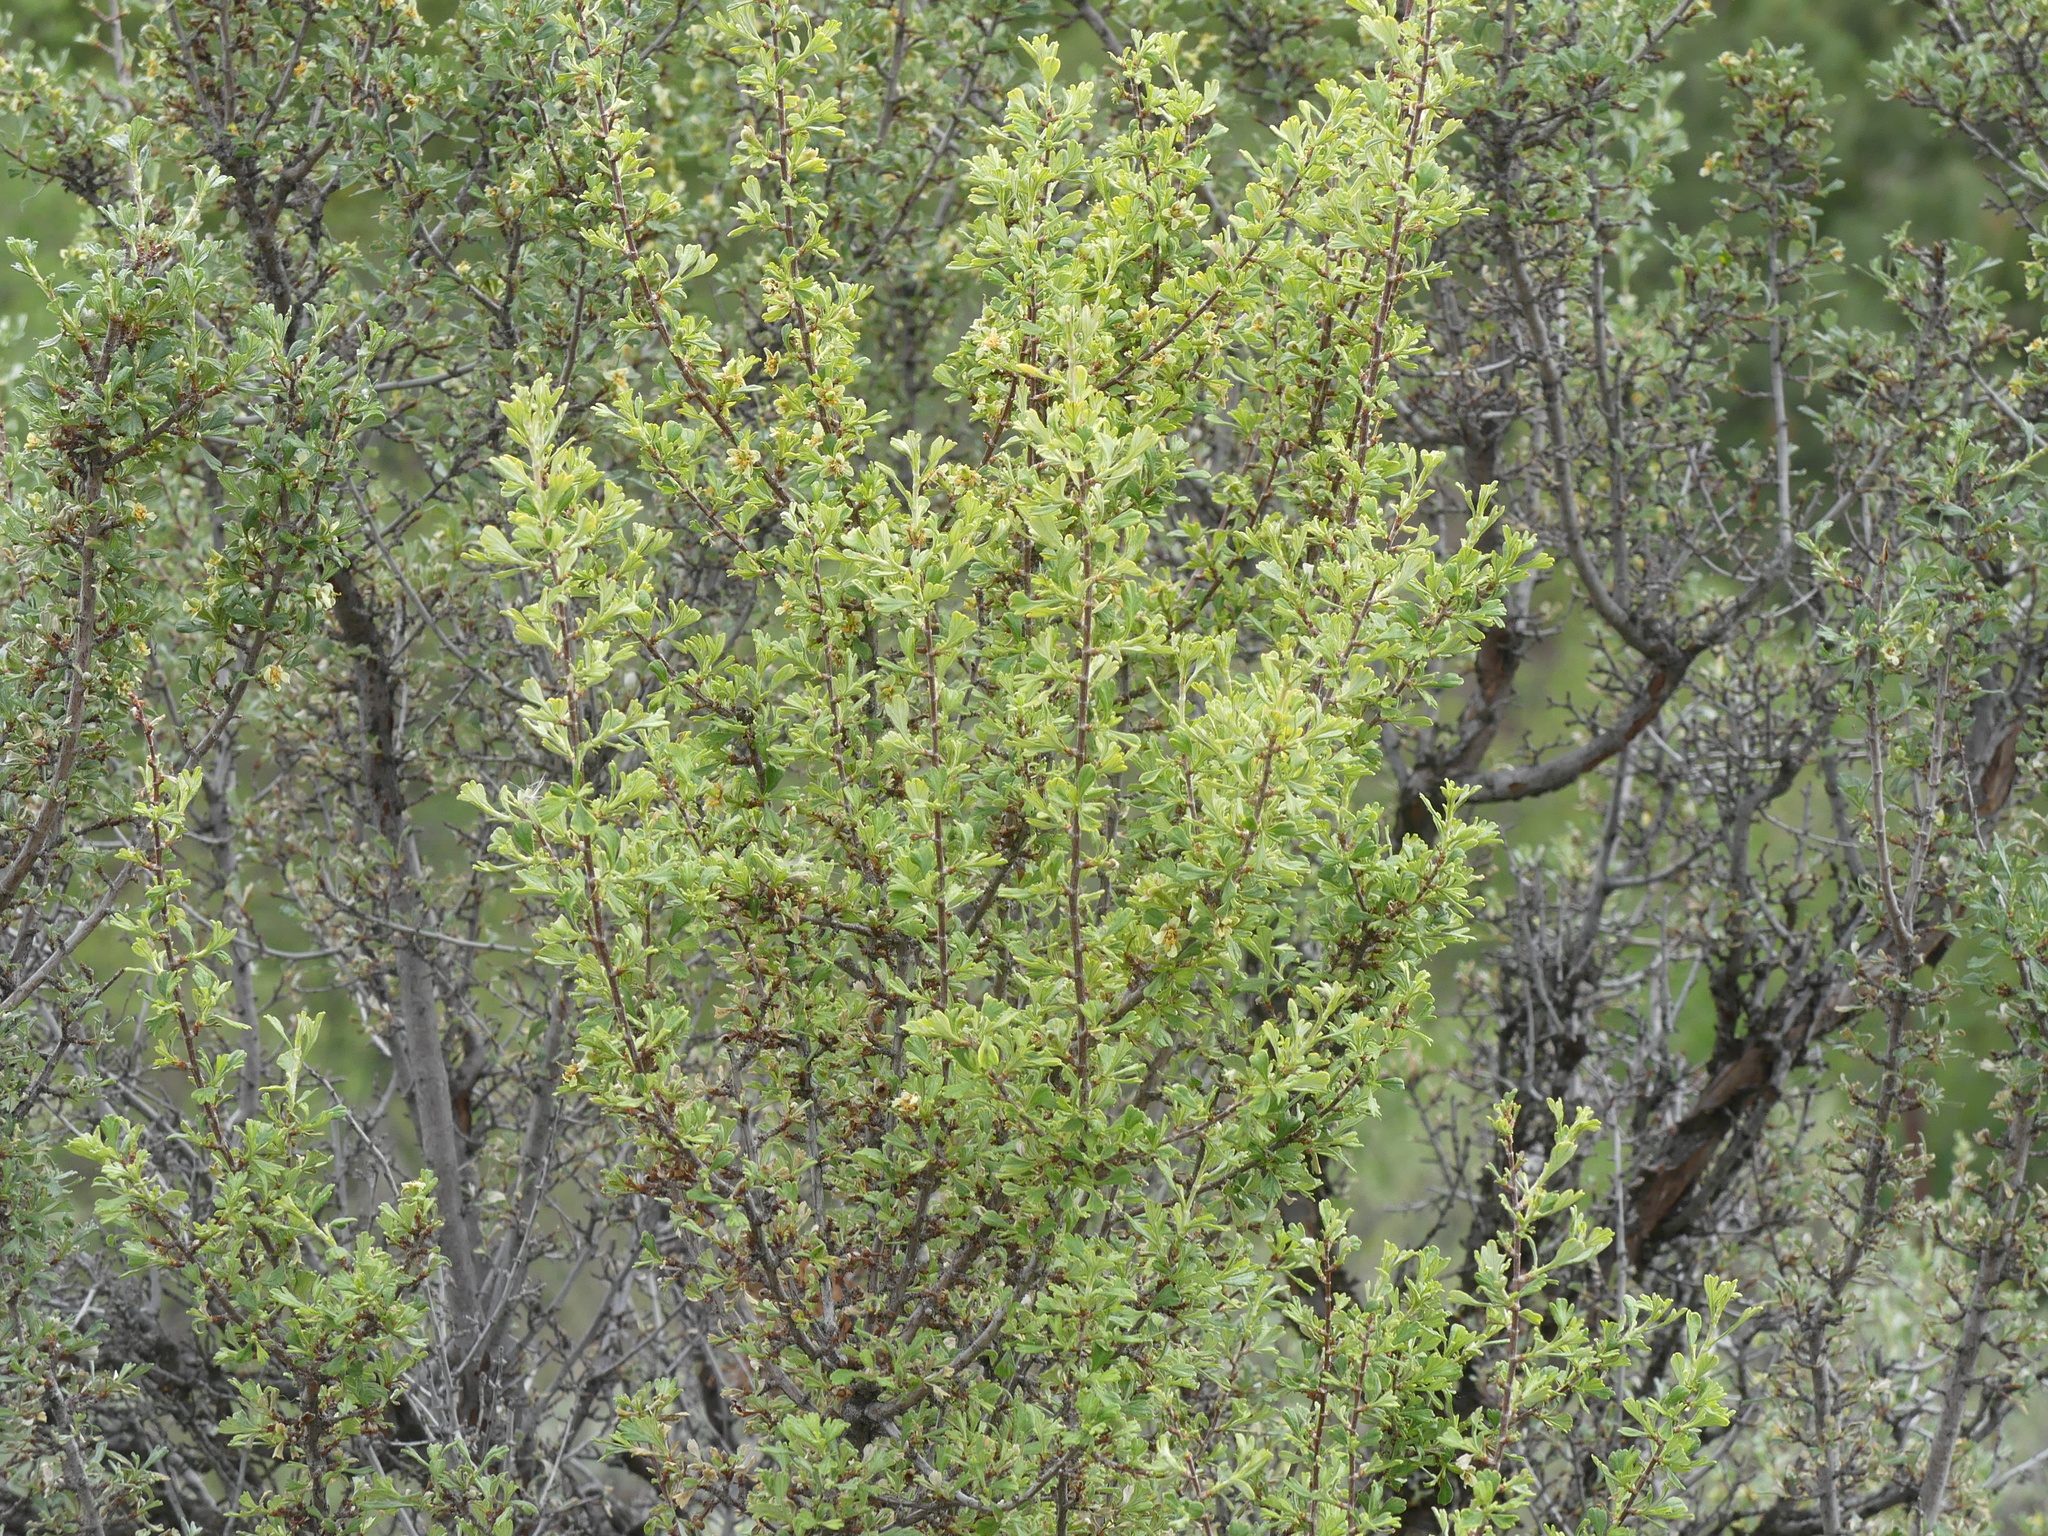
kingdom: Plantae
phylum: Tracheophyta
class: Magnoliopsida
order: Rosales
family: Rosaceae
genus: Purshia
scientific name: Purshia tridentata
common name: Antelope bitterbrush
